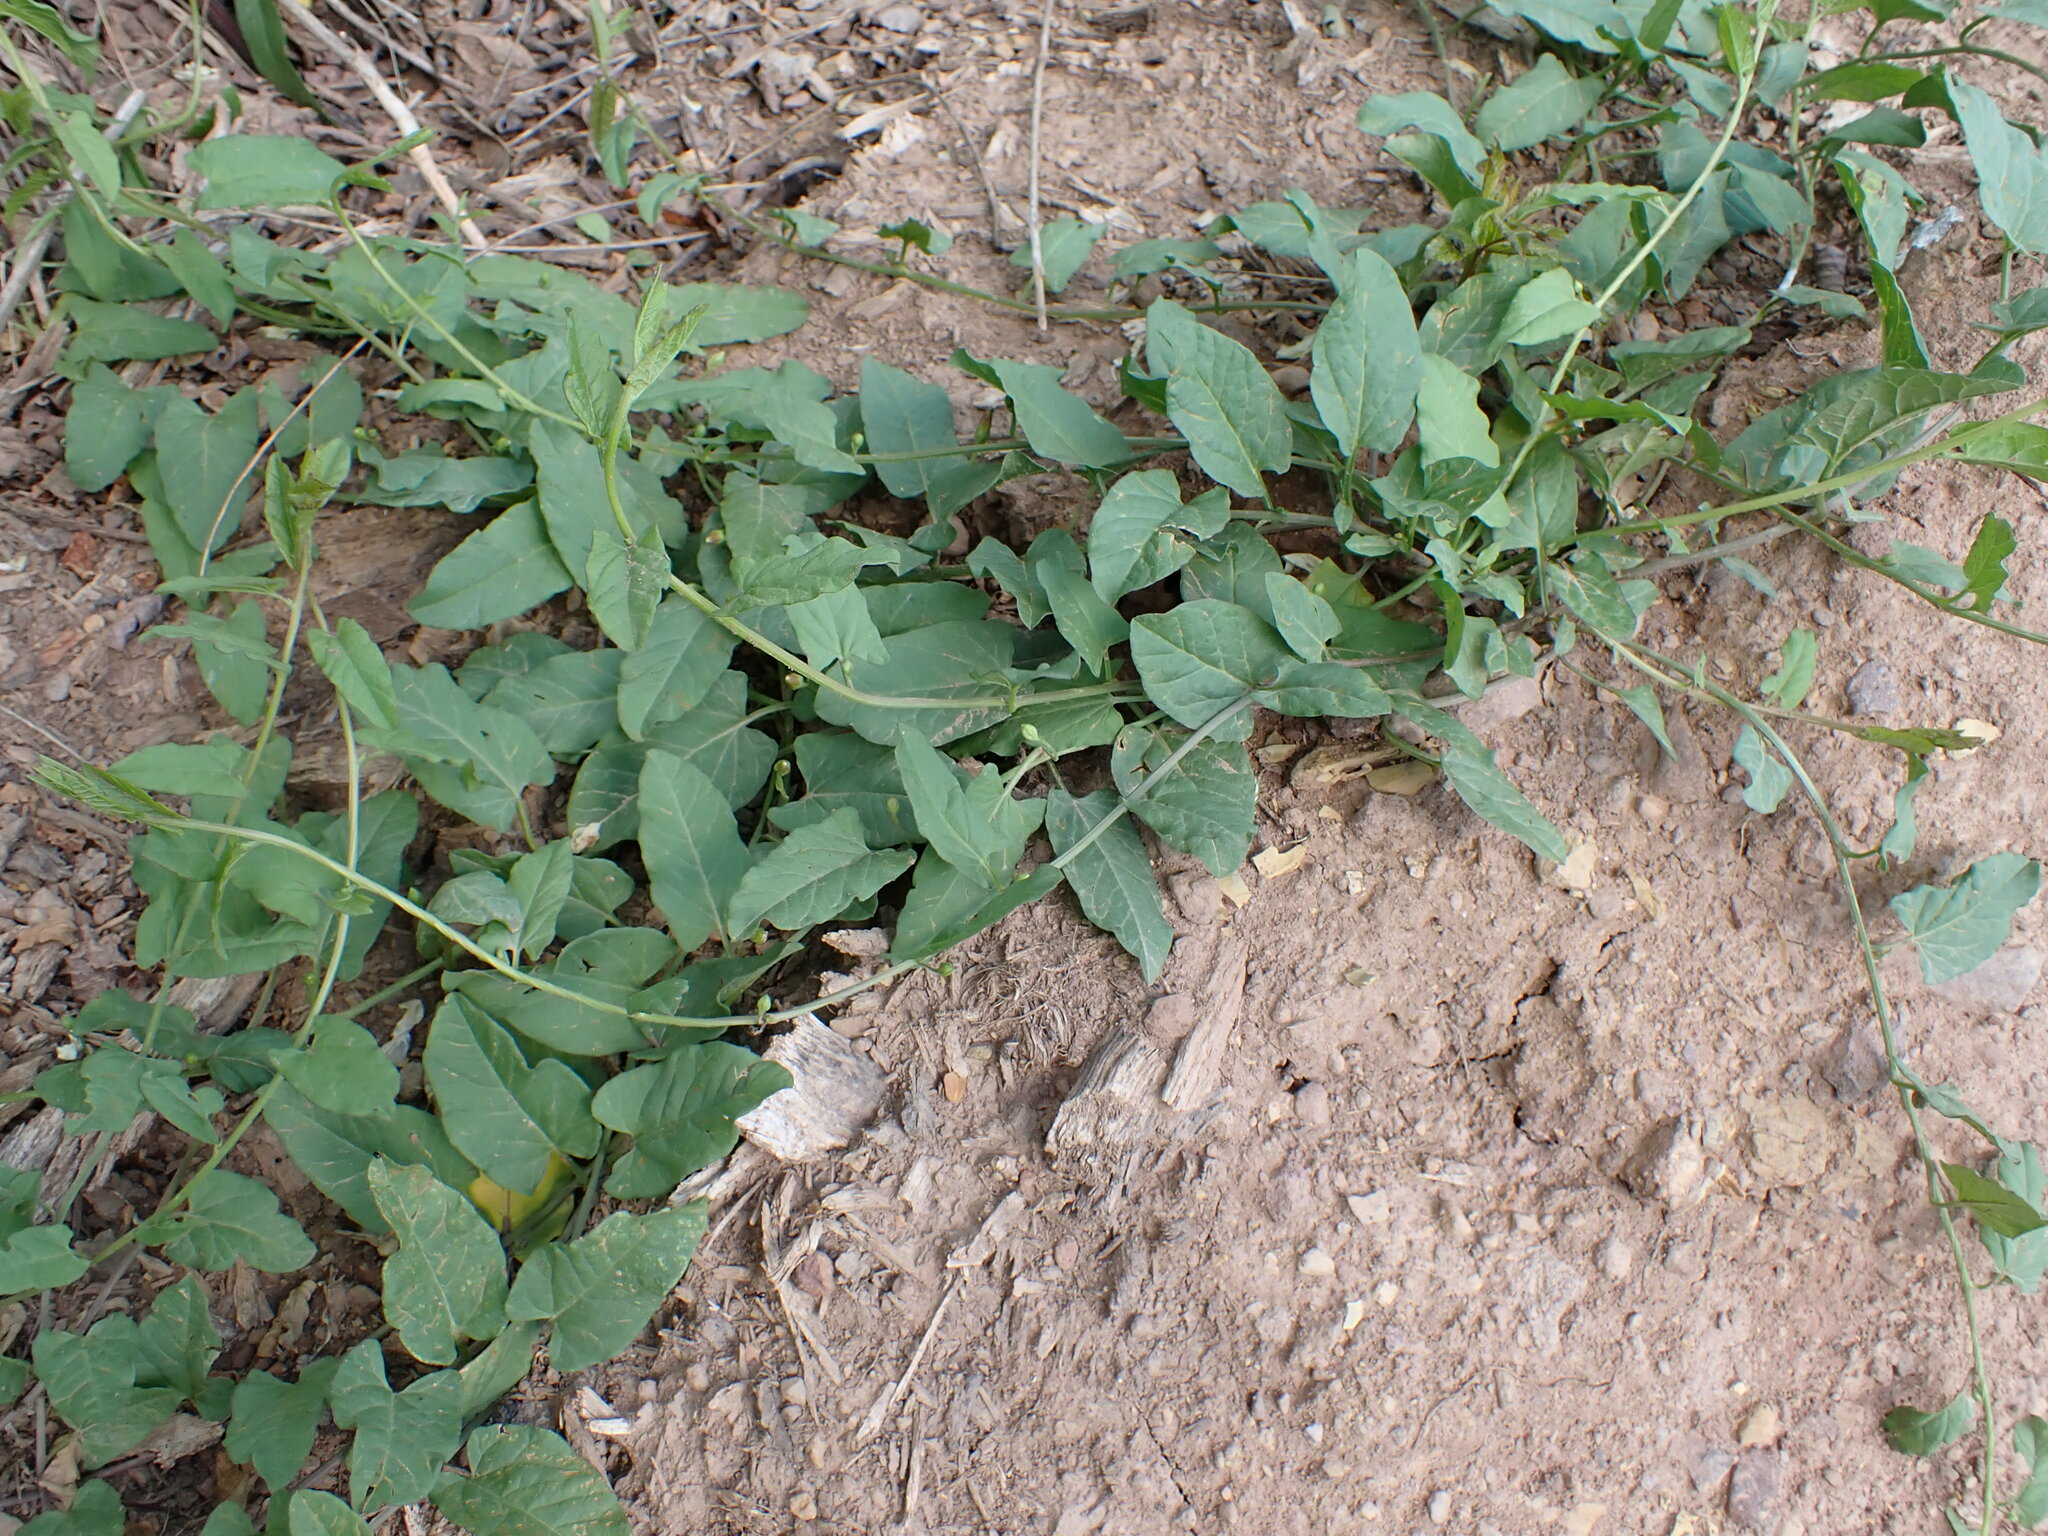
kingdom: Plantae
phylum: Tracheophyta
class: Magnoliopsida
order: Solanales
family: Convolvulaceae
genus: Convolvulus
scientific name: Convolvulus arvensis
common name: Field bindweed
